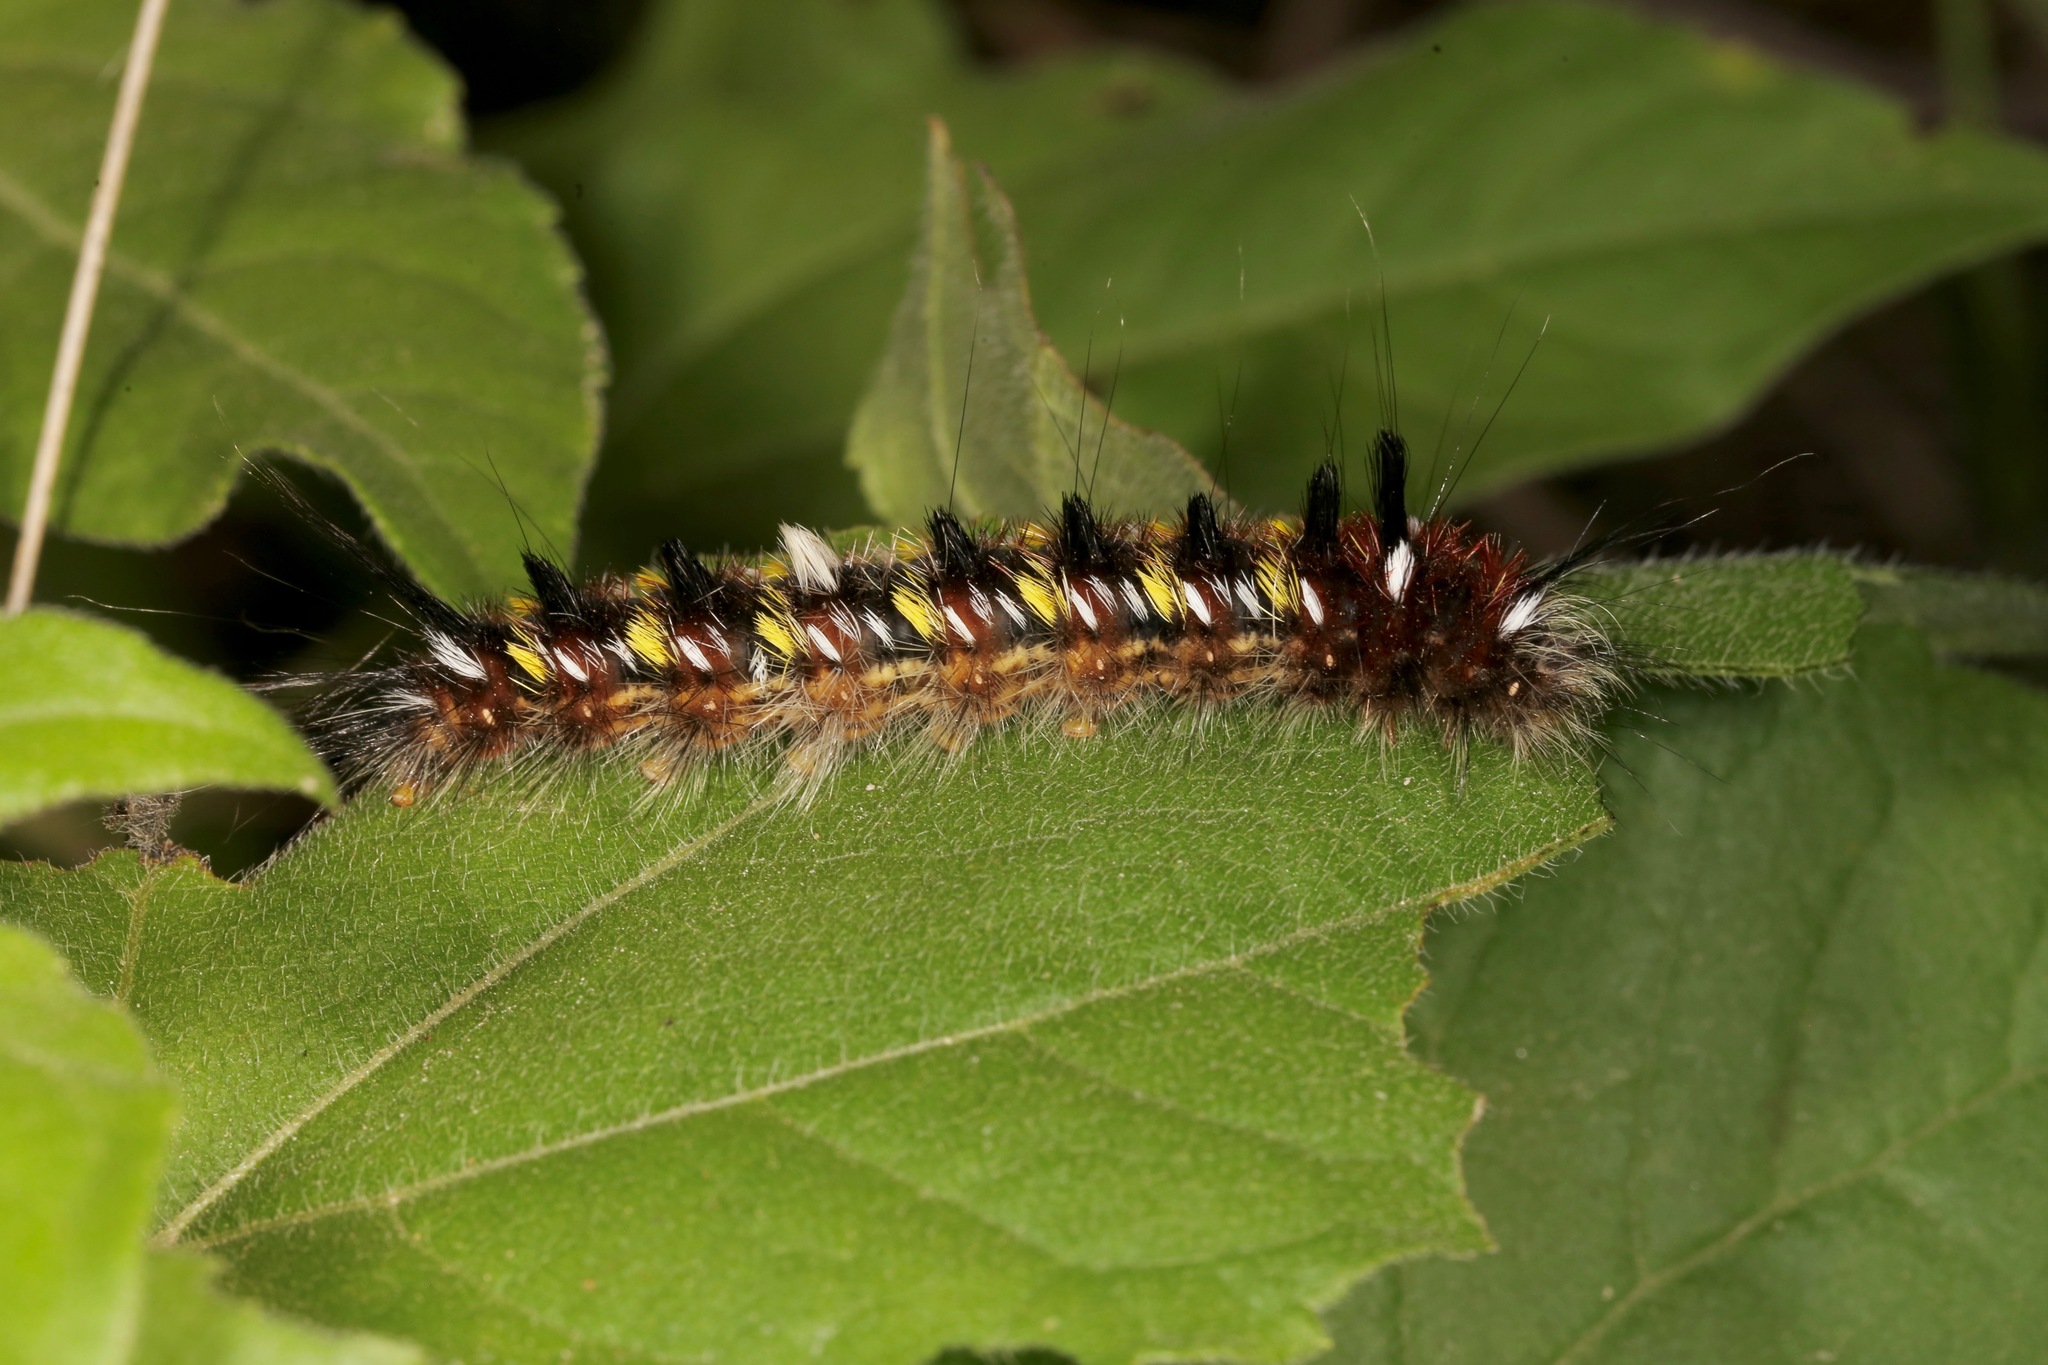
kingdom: Animalia
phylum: Arthropoda
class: Insecta
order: Lepidoptera
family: Apatelodidae
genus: Hygrochroa
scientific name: Hygrochroa Apatelodes pudefacta
